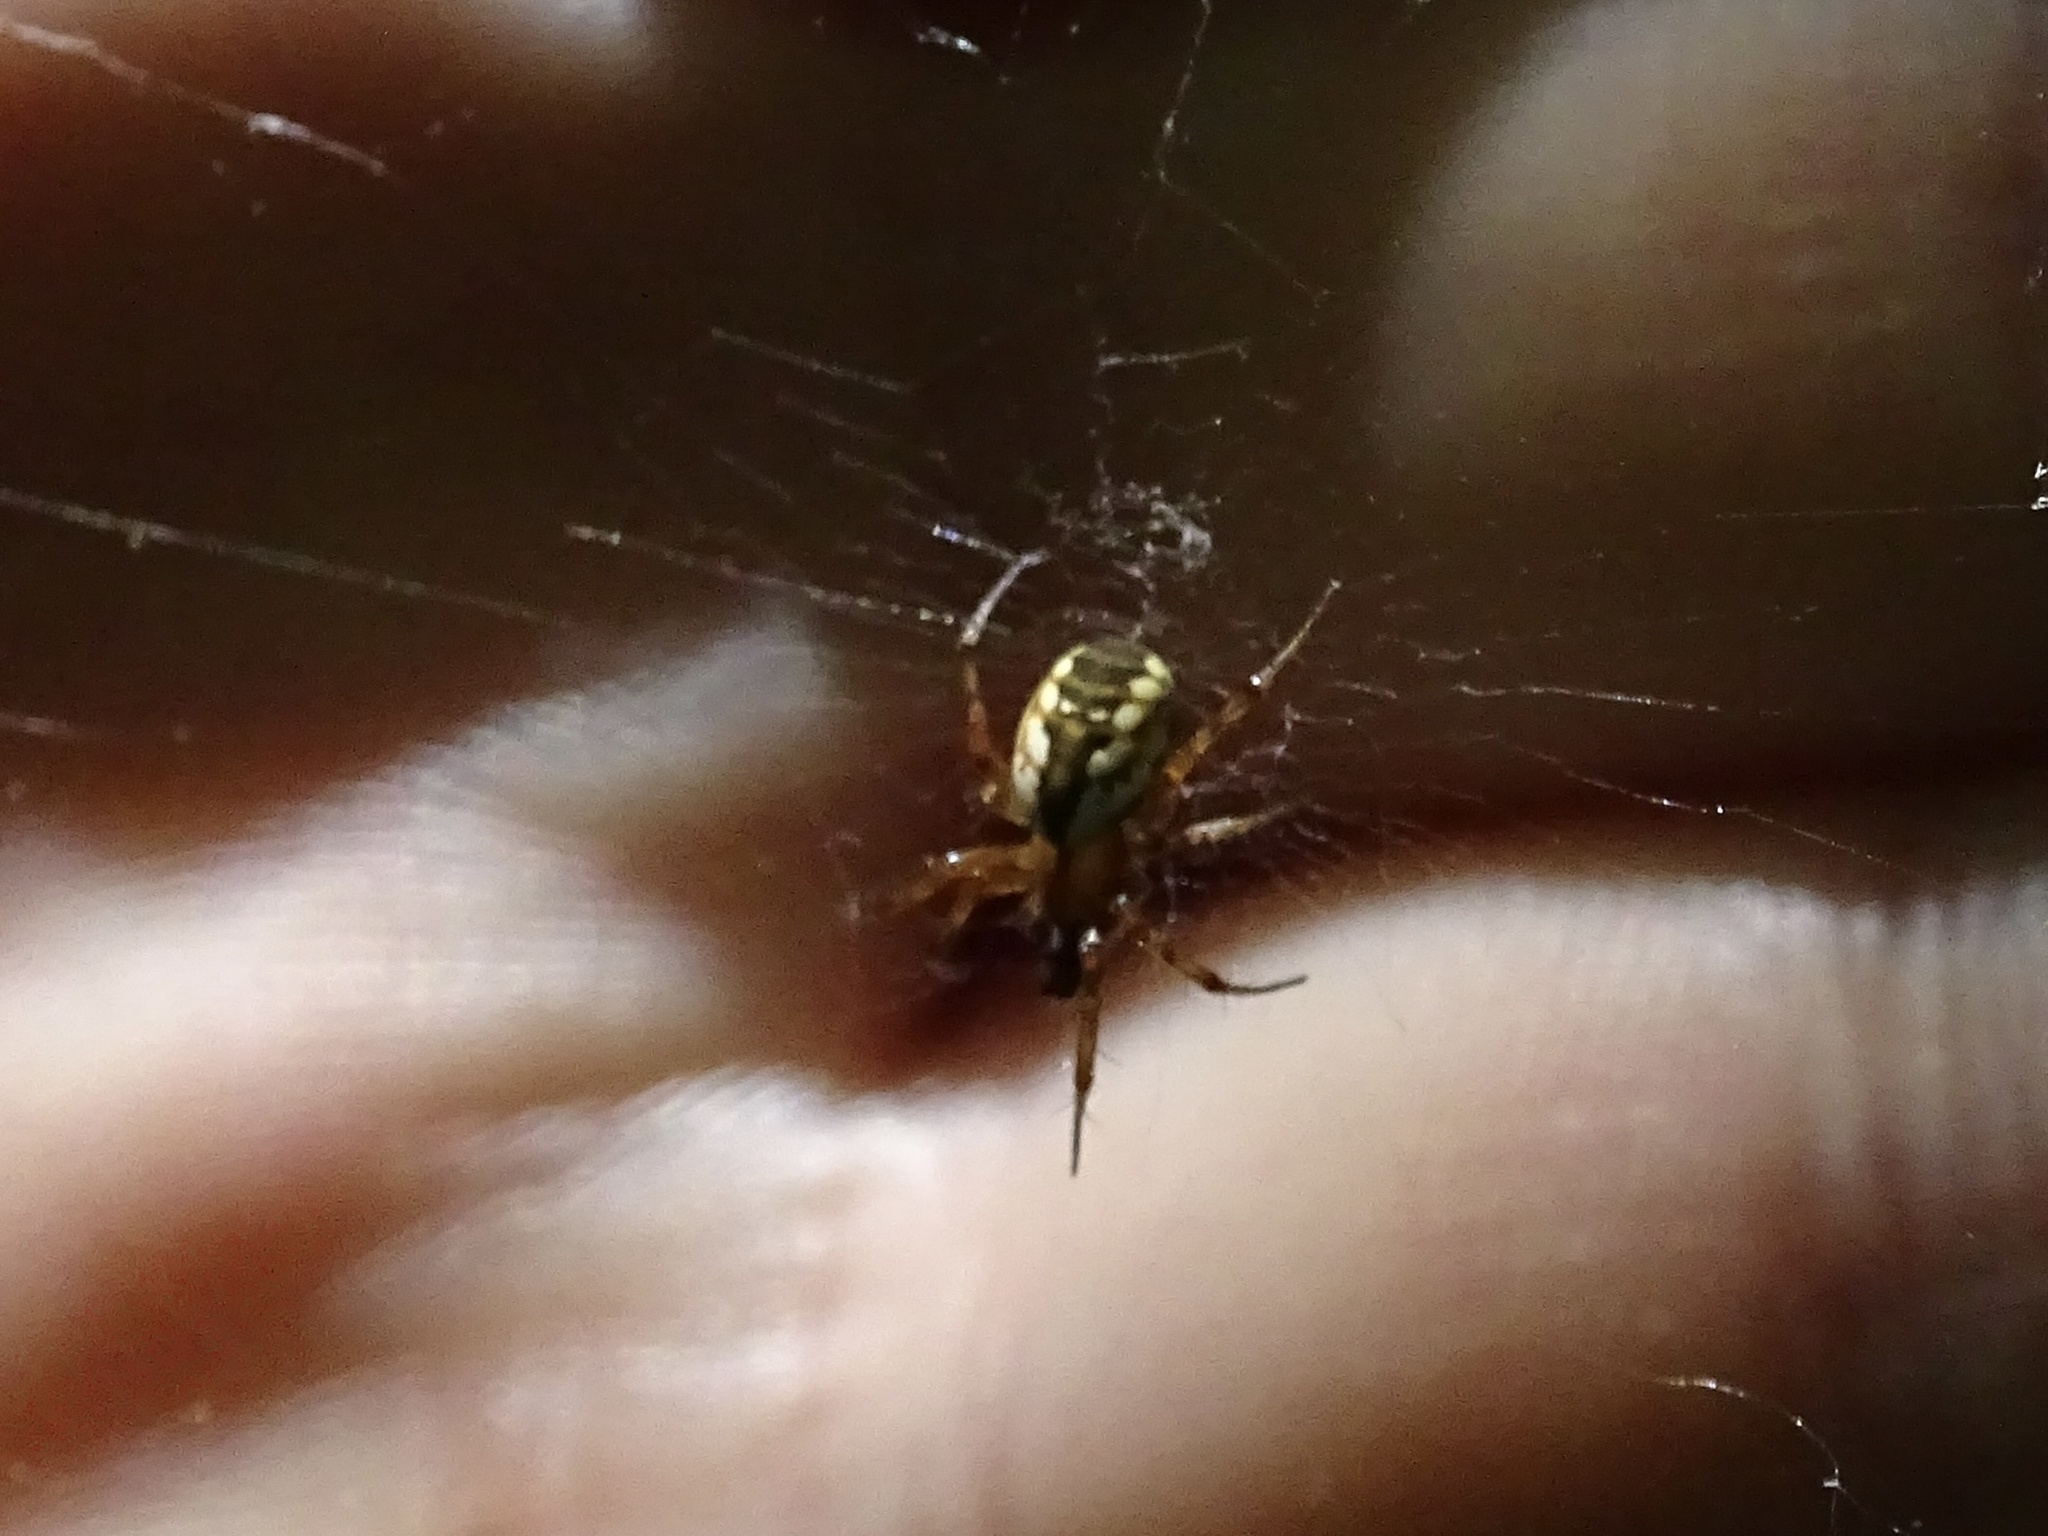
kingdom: Animalia
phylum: Arthropoda
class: Arachnida
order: Araneae
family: Araneidae
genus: Mangora
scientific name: Mangora placida
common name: Tuft-legged orbweaver
